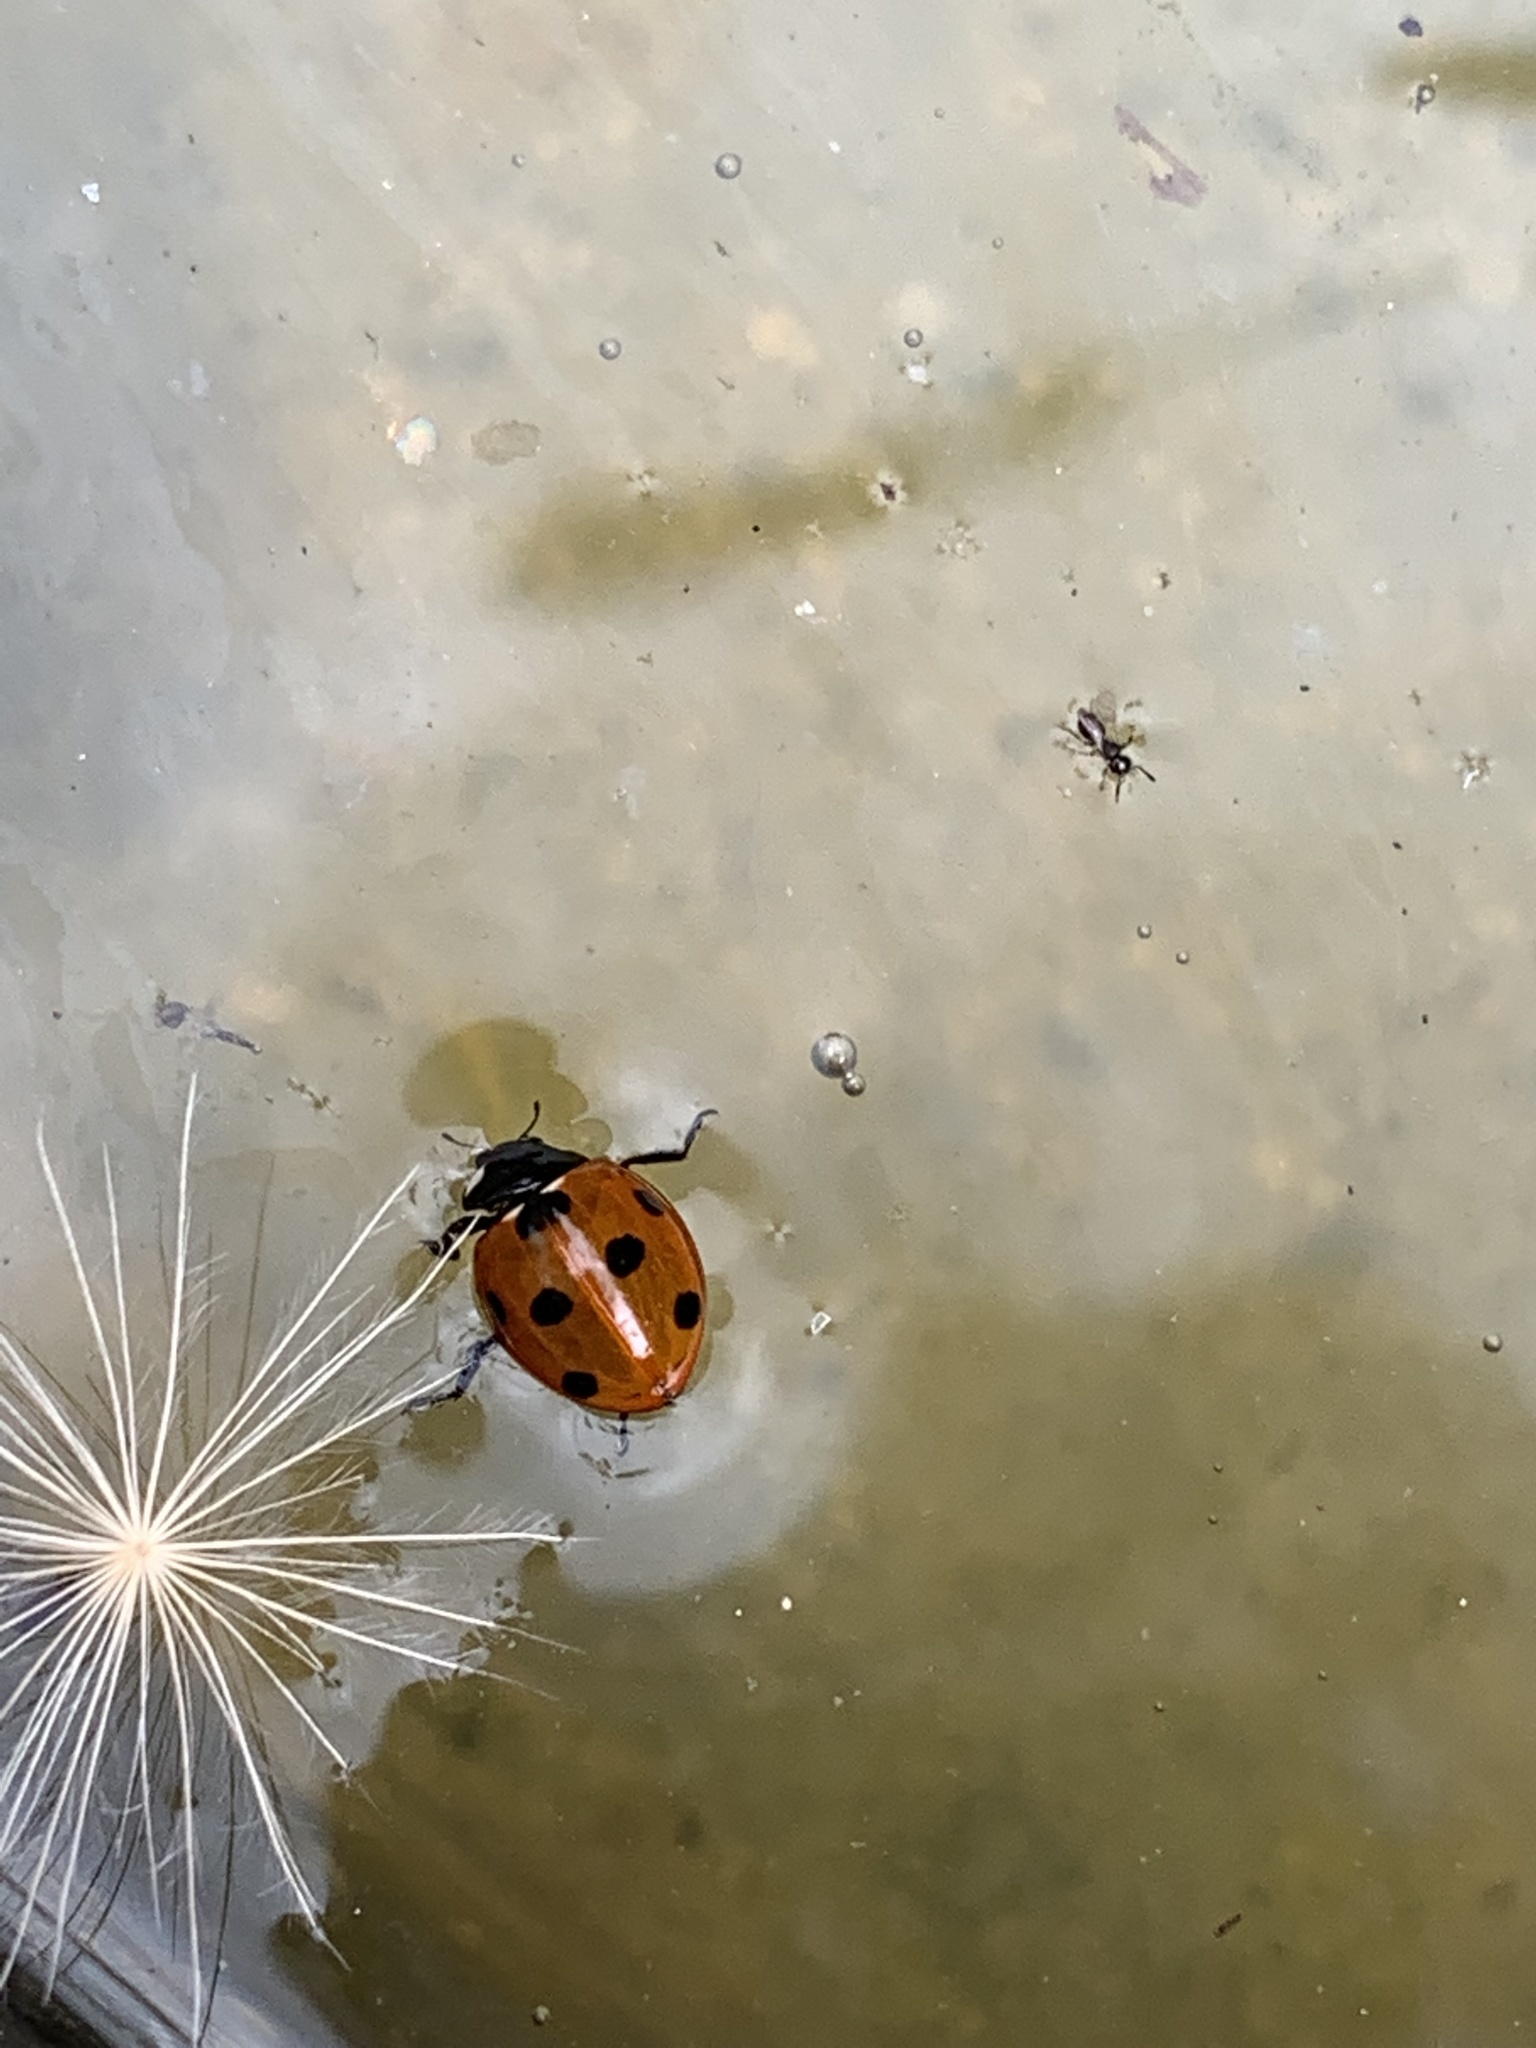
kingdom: Animalia
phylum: Arthropoda
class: Insecta
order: Coleoptera
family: Coccinellidae
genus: Coccinella
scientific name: Coccinella septempunctata
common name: Sevenspotted lady beetle
